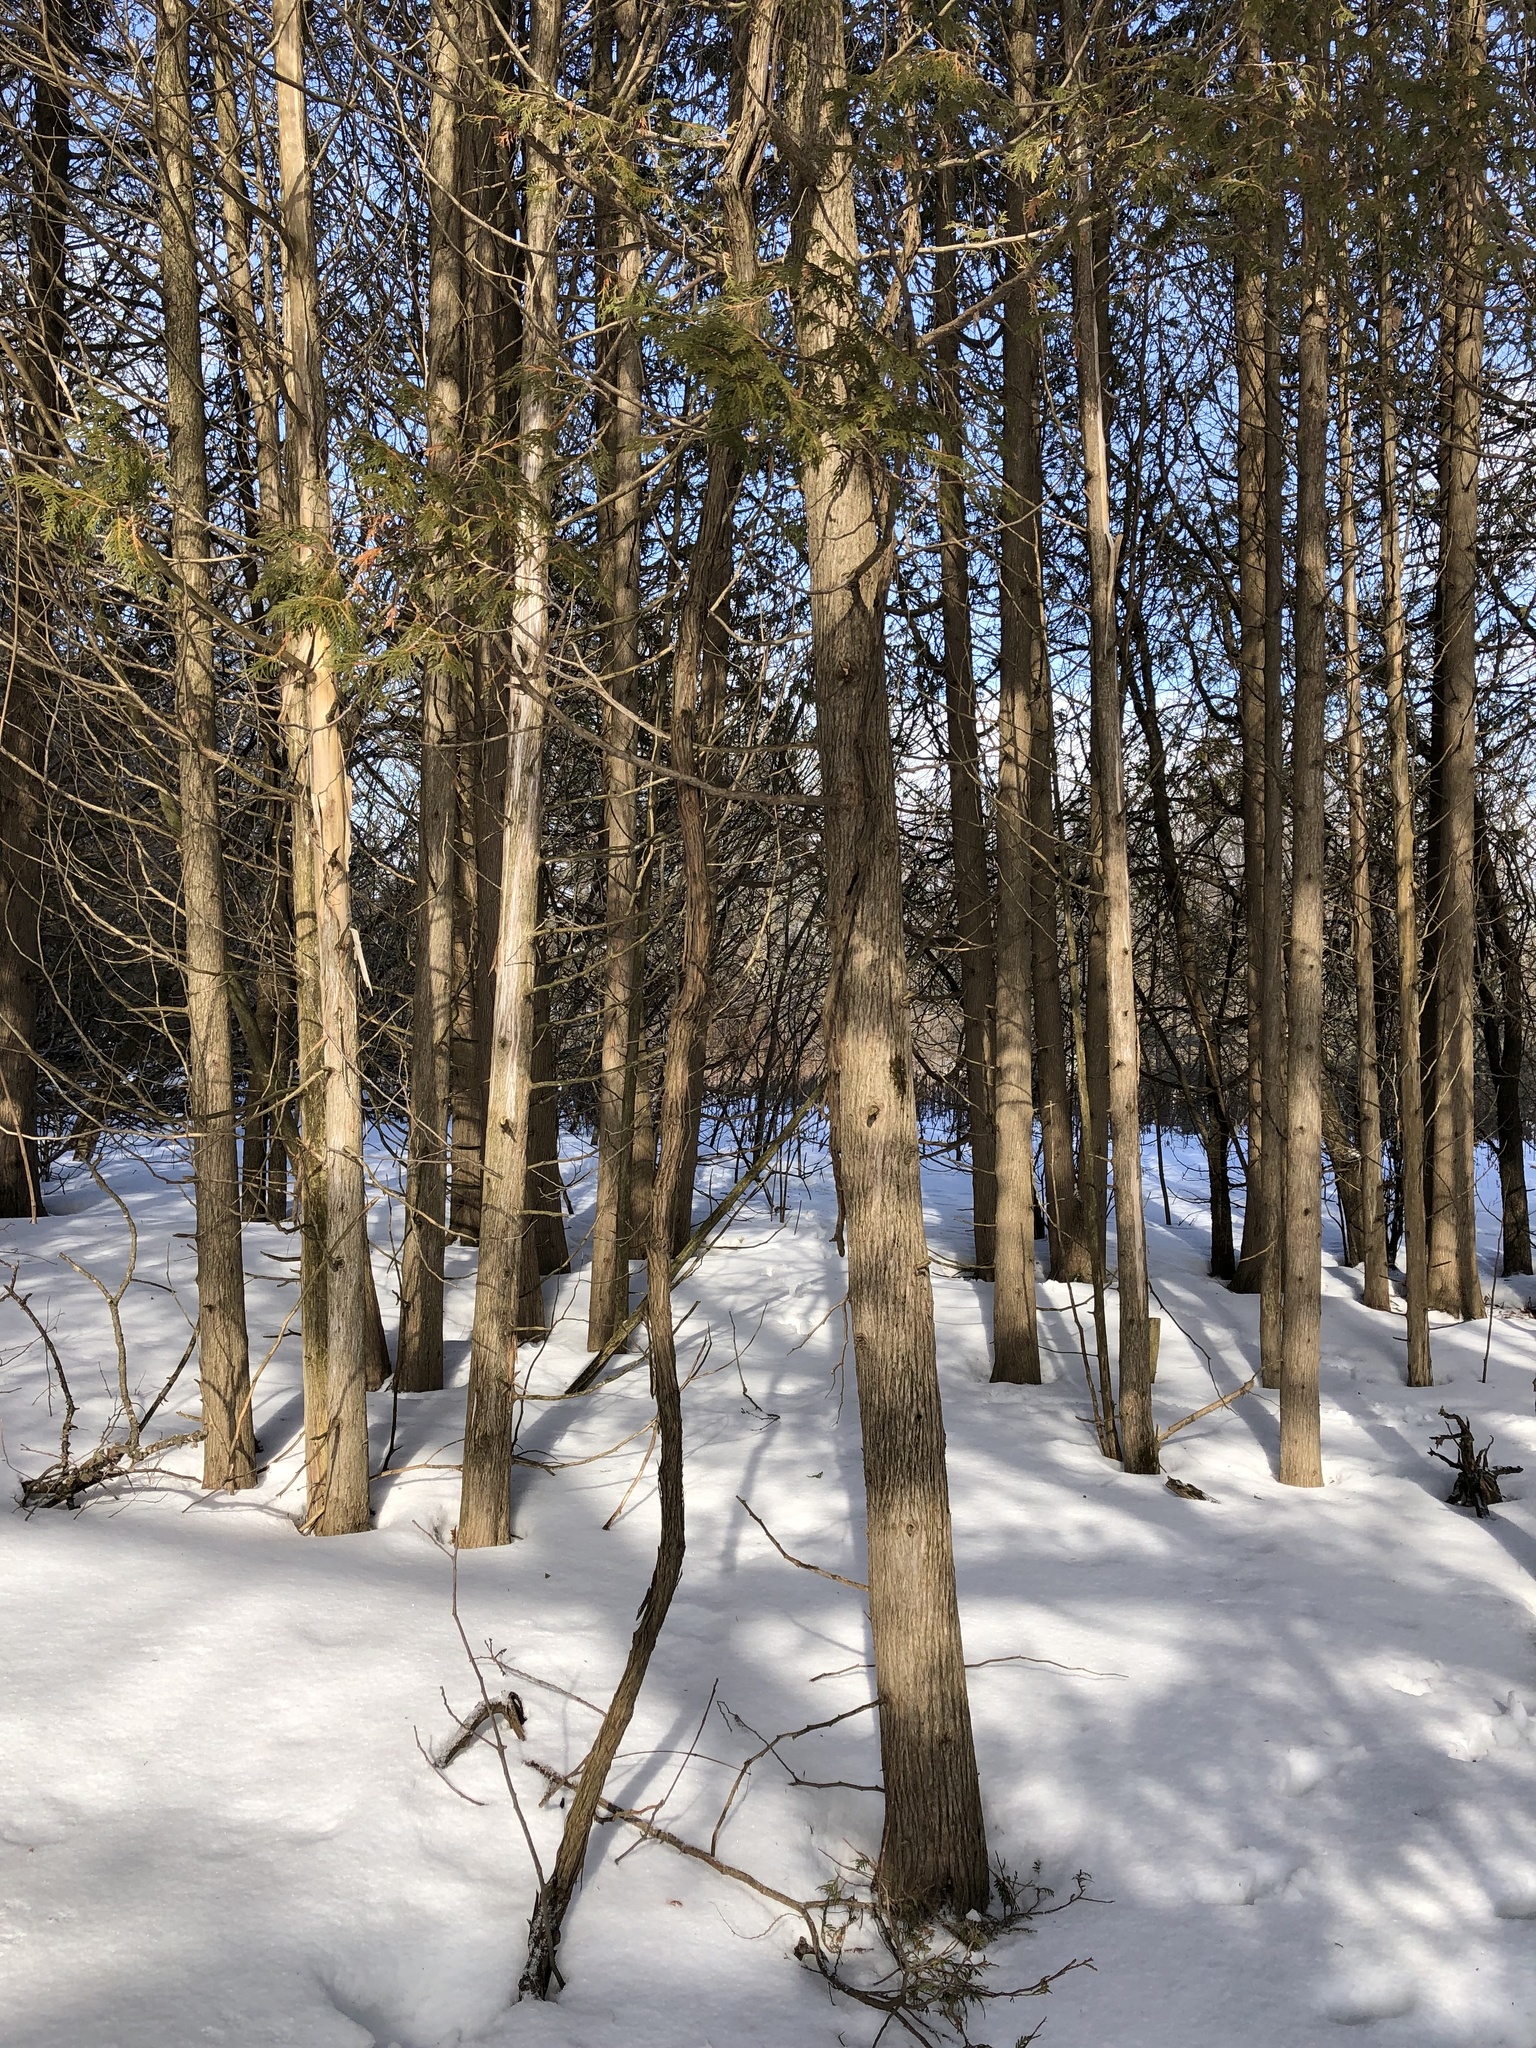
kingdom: Plantae
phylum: Tracheophyta
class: Pinopsida
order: Pinales
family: Cupressaceae
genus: Thuja
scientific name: Thuja occidentalis
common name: Northern white-cedar
